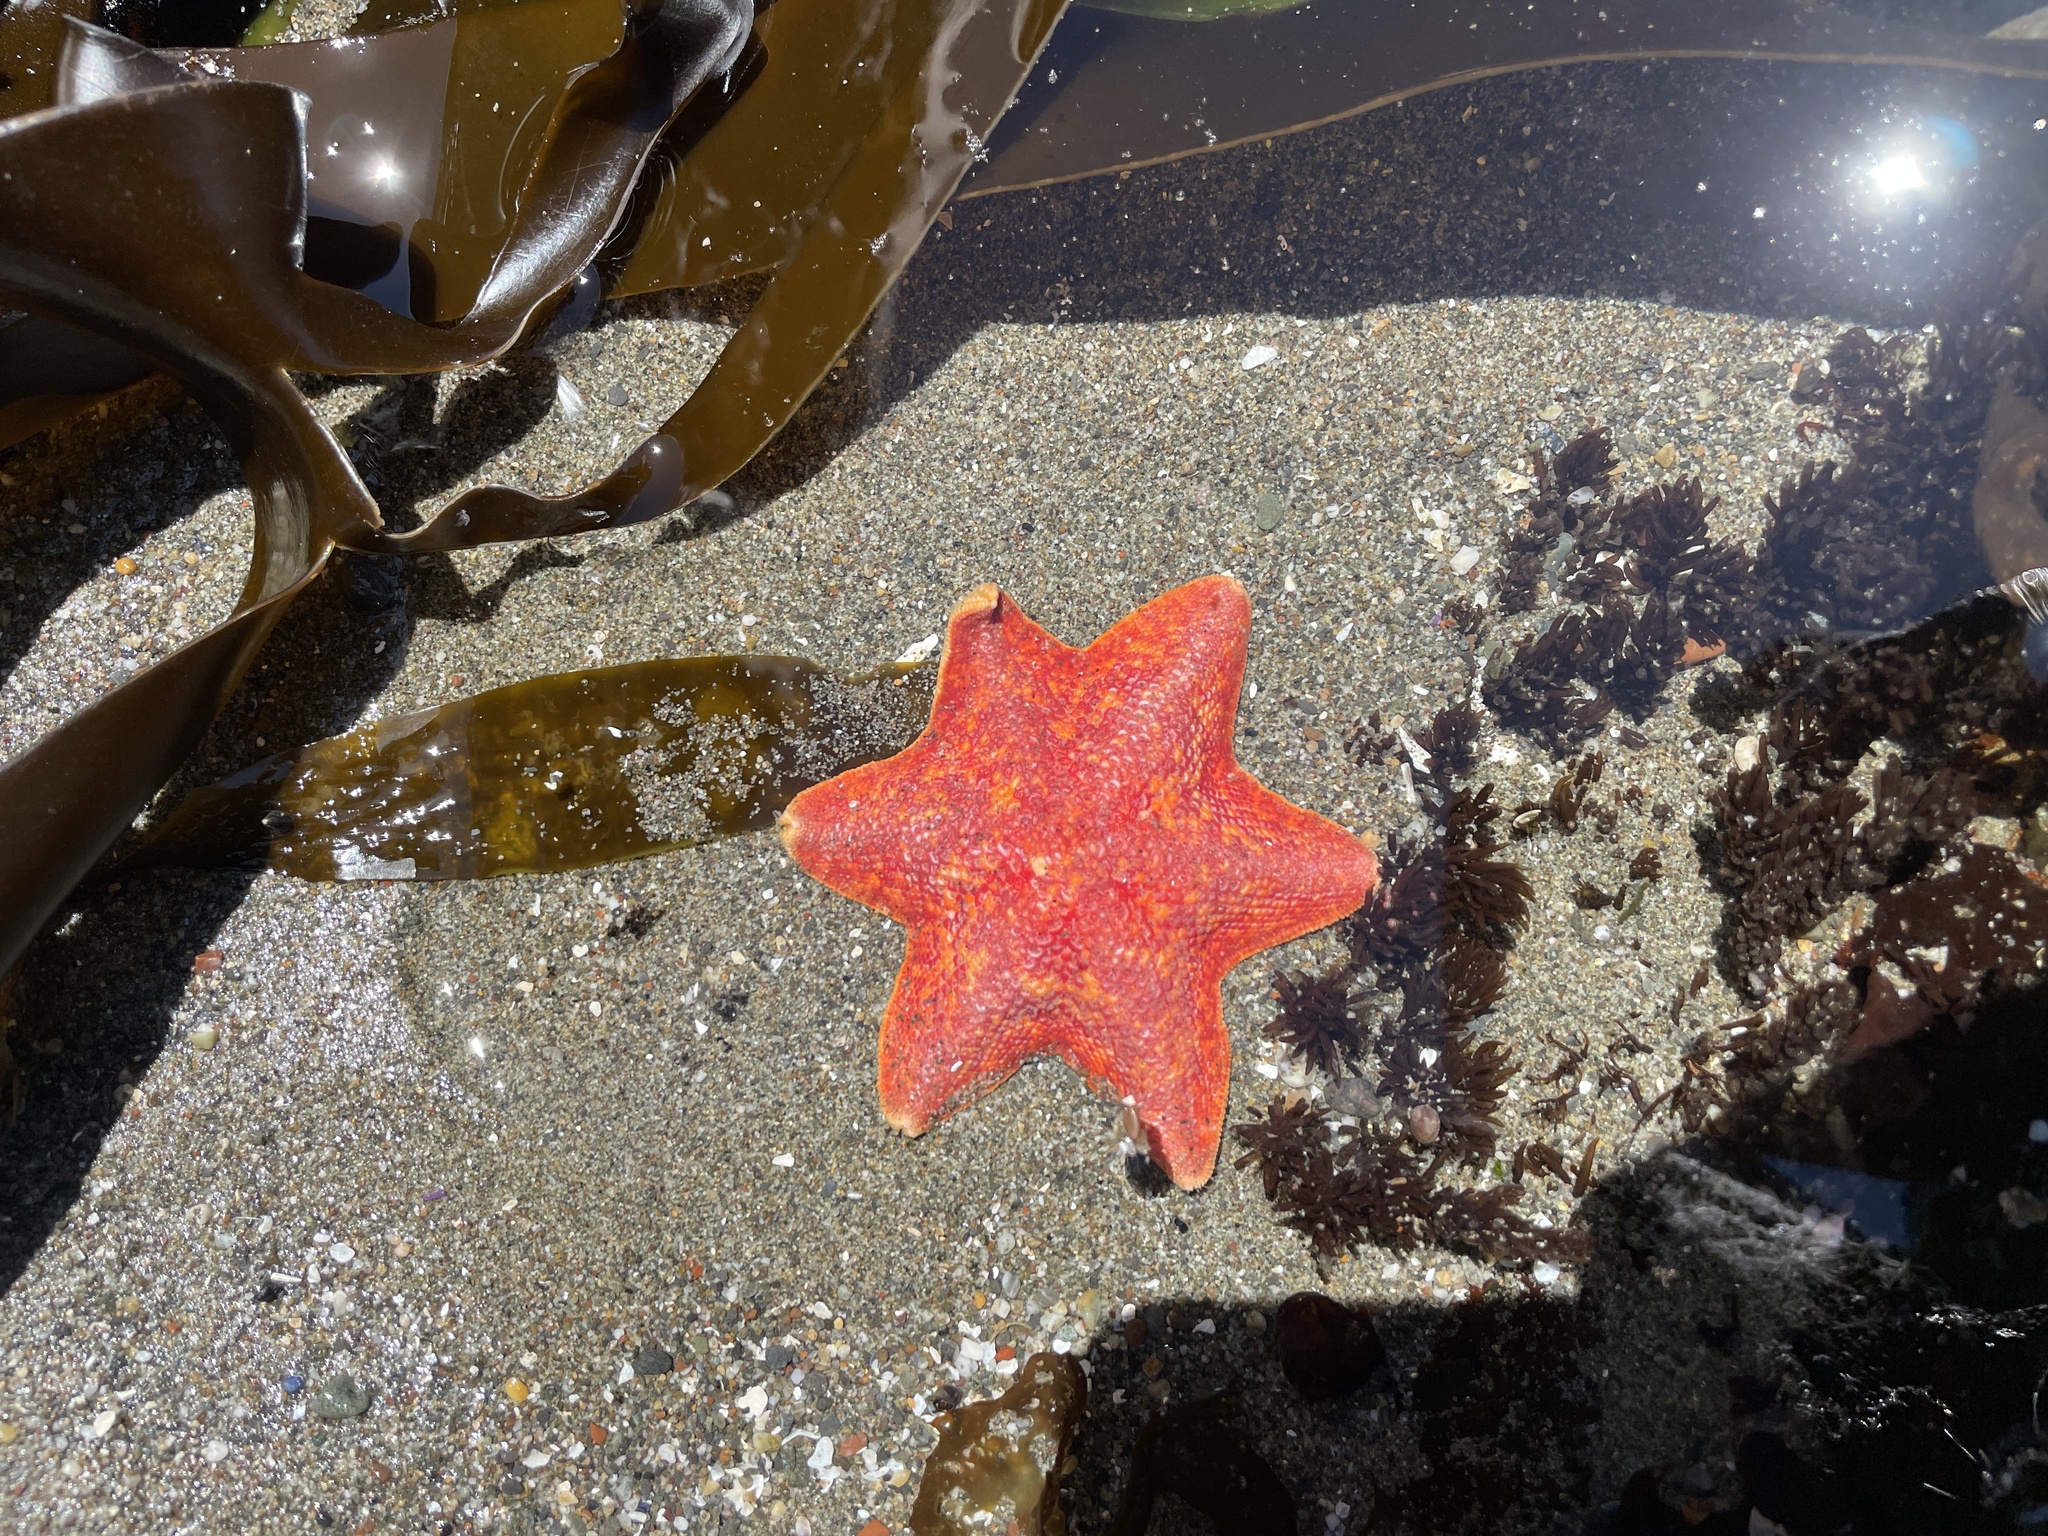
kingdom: Animalia
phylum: Echinodermata
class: Asteroidea
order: Valvatida
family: Asterinidae
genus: Patiria
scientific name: Patiria miniata
